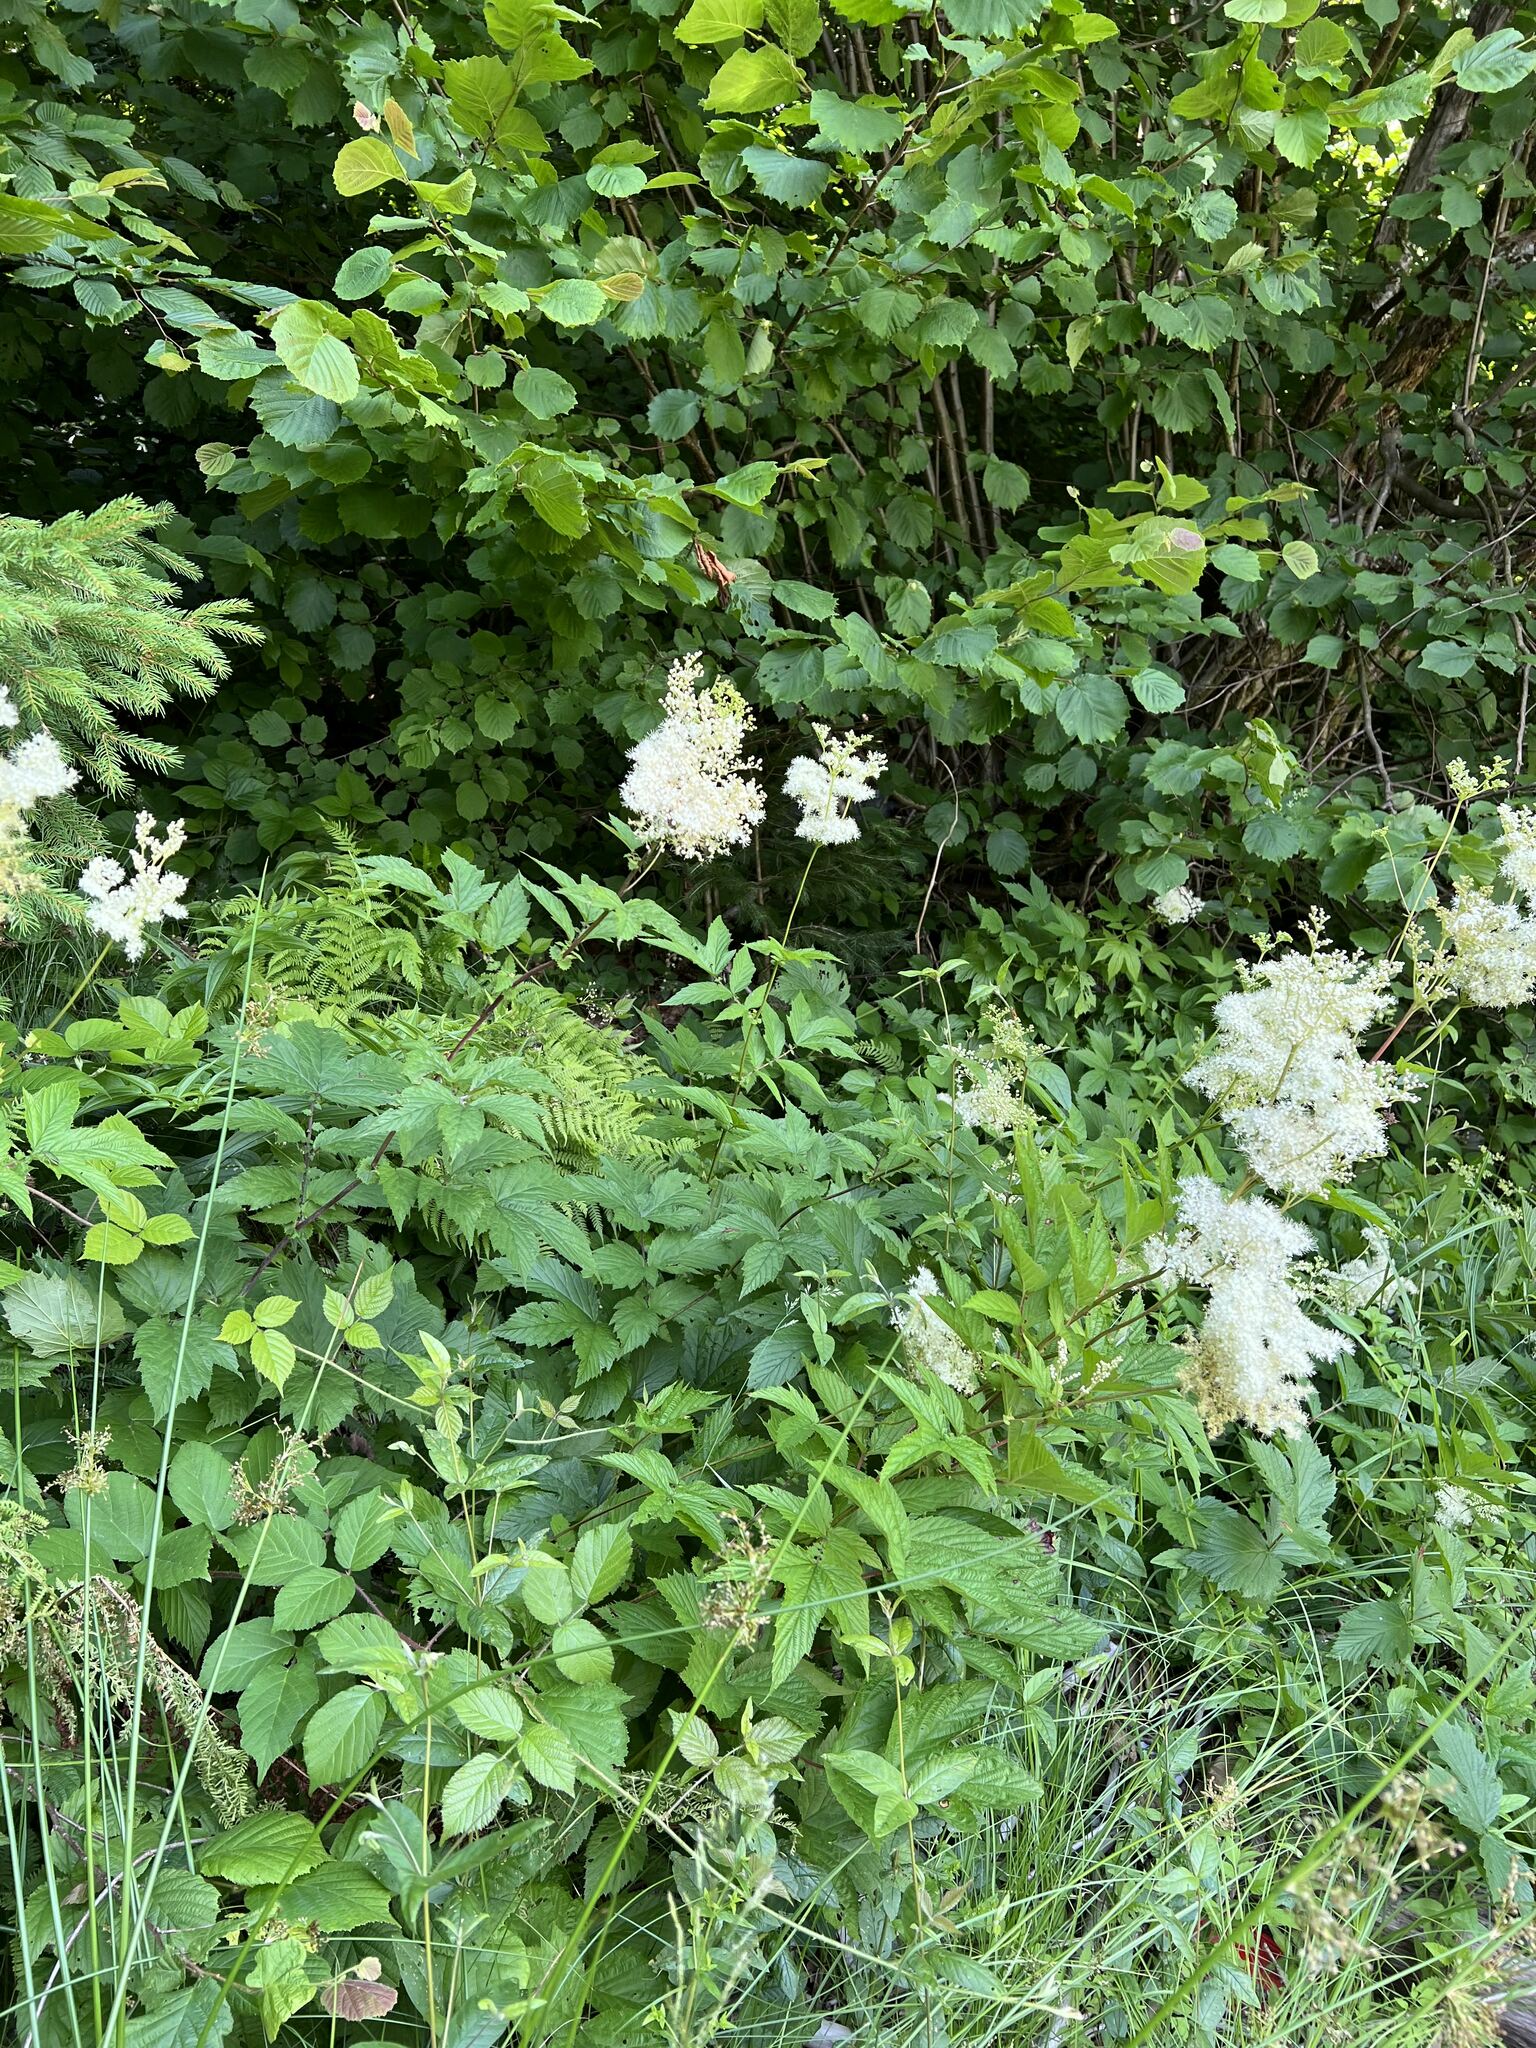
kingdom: Plantae
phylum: Tracheophyta
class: Magnoliopsida
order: Rosales
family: Rosaceae
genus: Filipendula
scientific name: Filipendula ulmaria
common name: Meadowsweet
